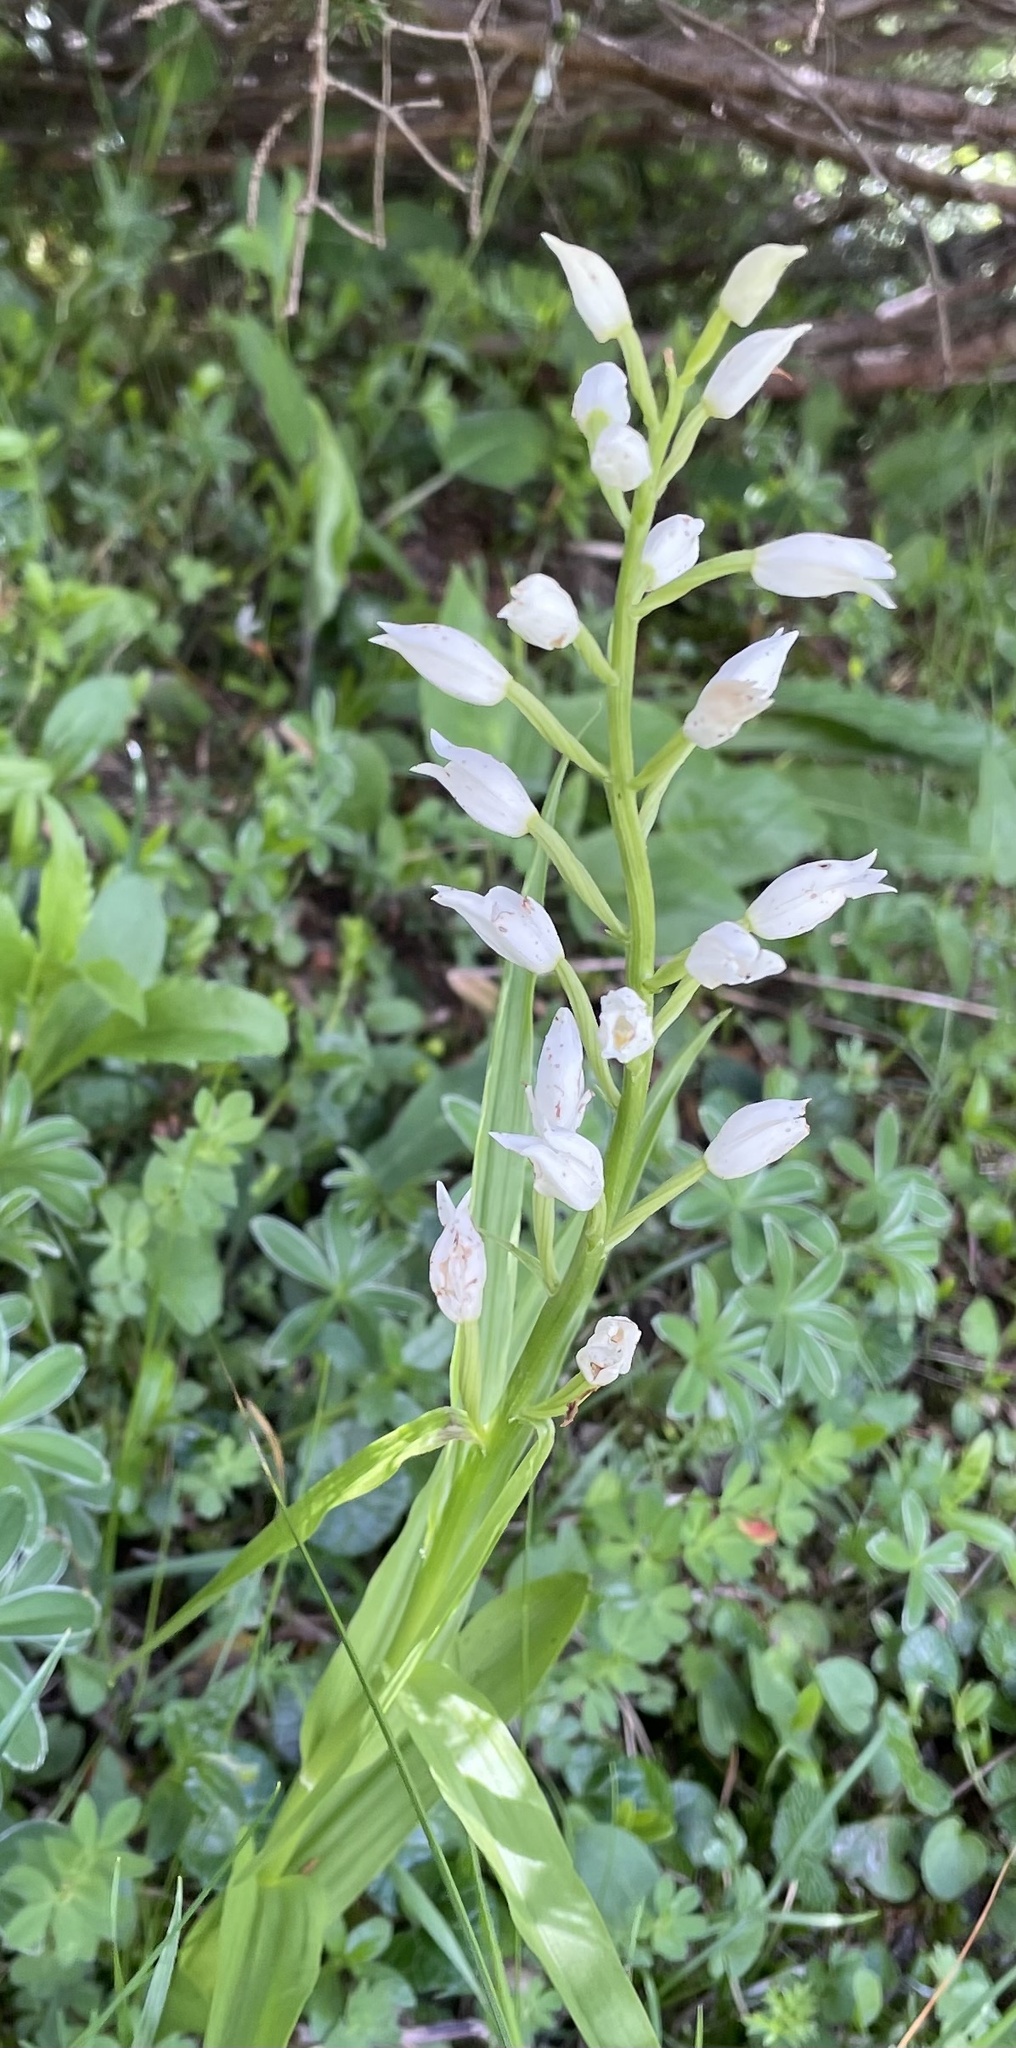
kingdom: Plantae
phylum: Tracheophyta
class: Liliopsida
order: Asparagales
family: Orchidaceae
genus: Cephalanthera
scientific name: Cephalanthera longifolia
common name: Narrow-leaved helleborine
